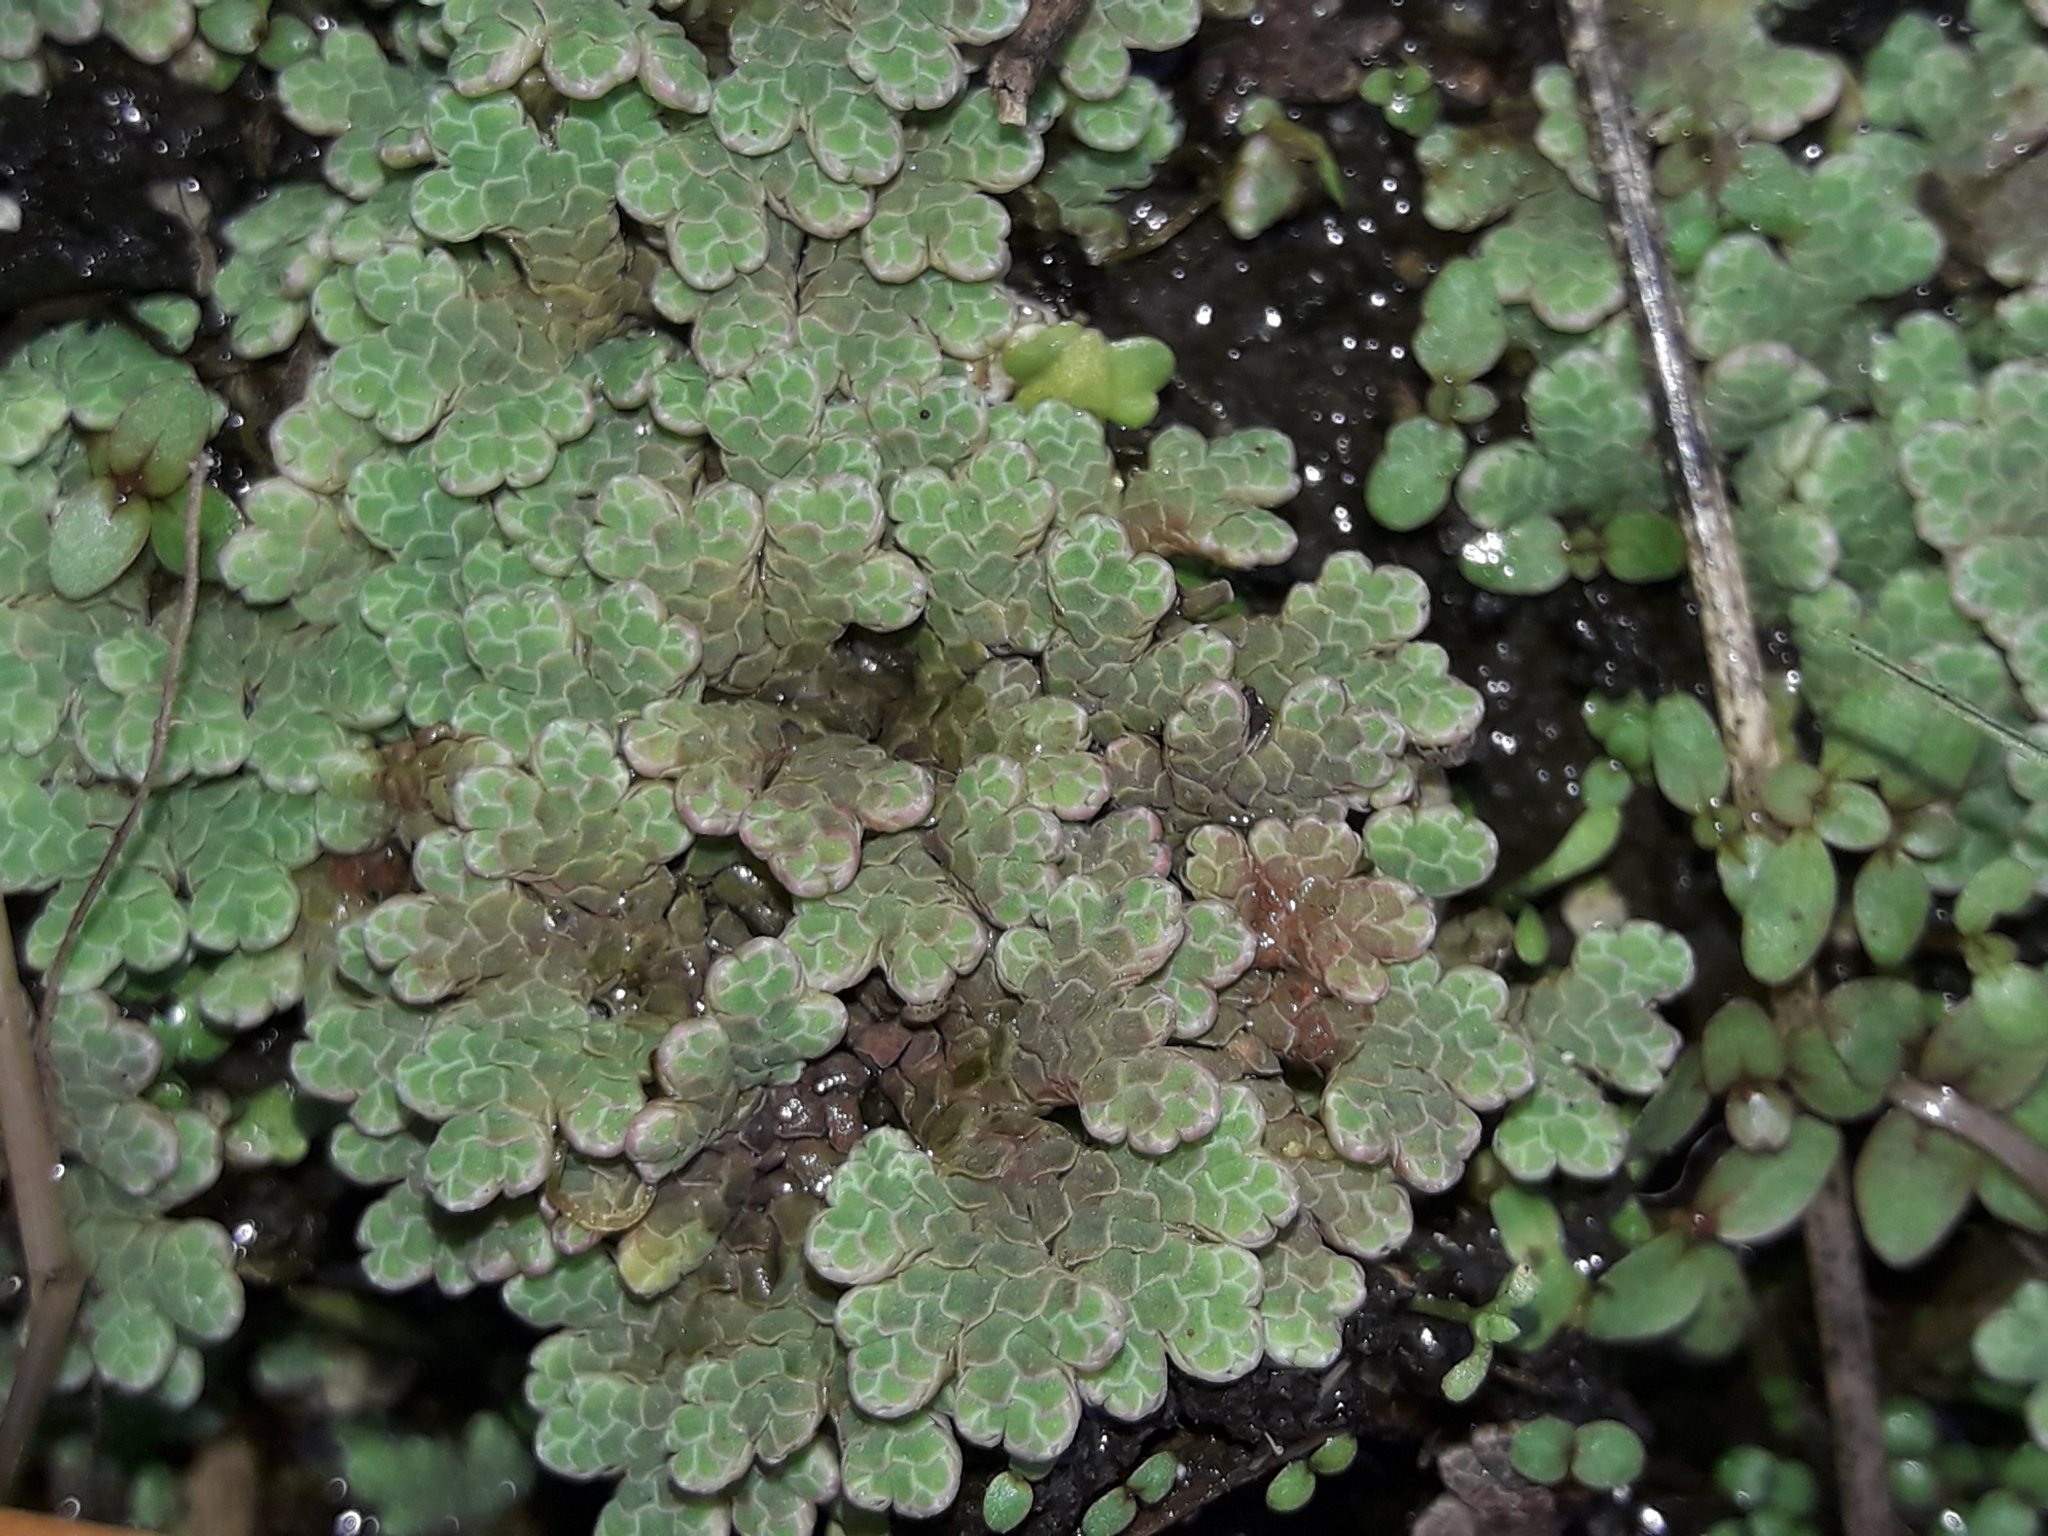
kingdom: Plantae
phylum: Tracheophyta
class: Polypodiopsida
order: Salviniales
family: Salviniaceae
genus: Azolla
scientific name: Azolla rubra
